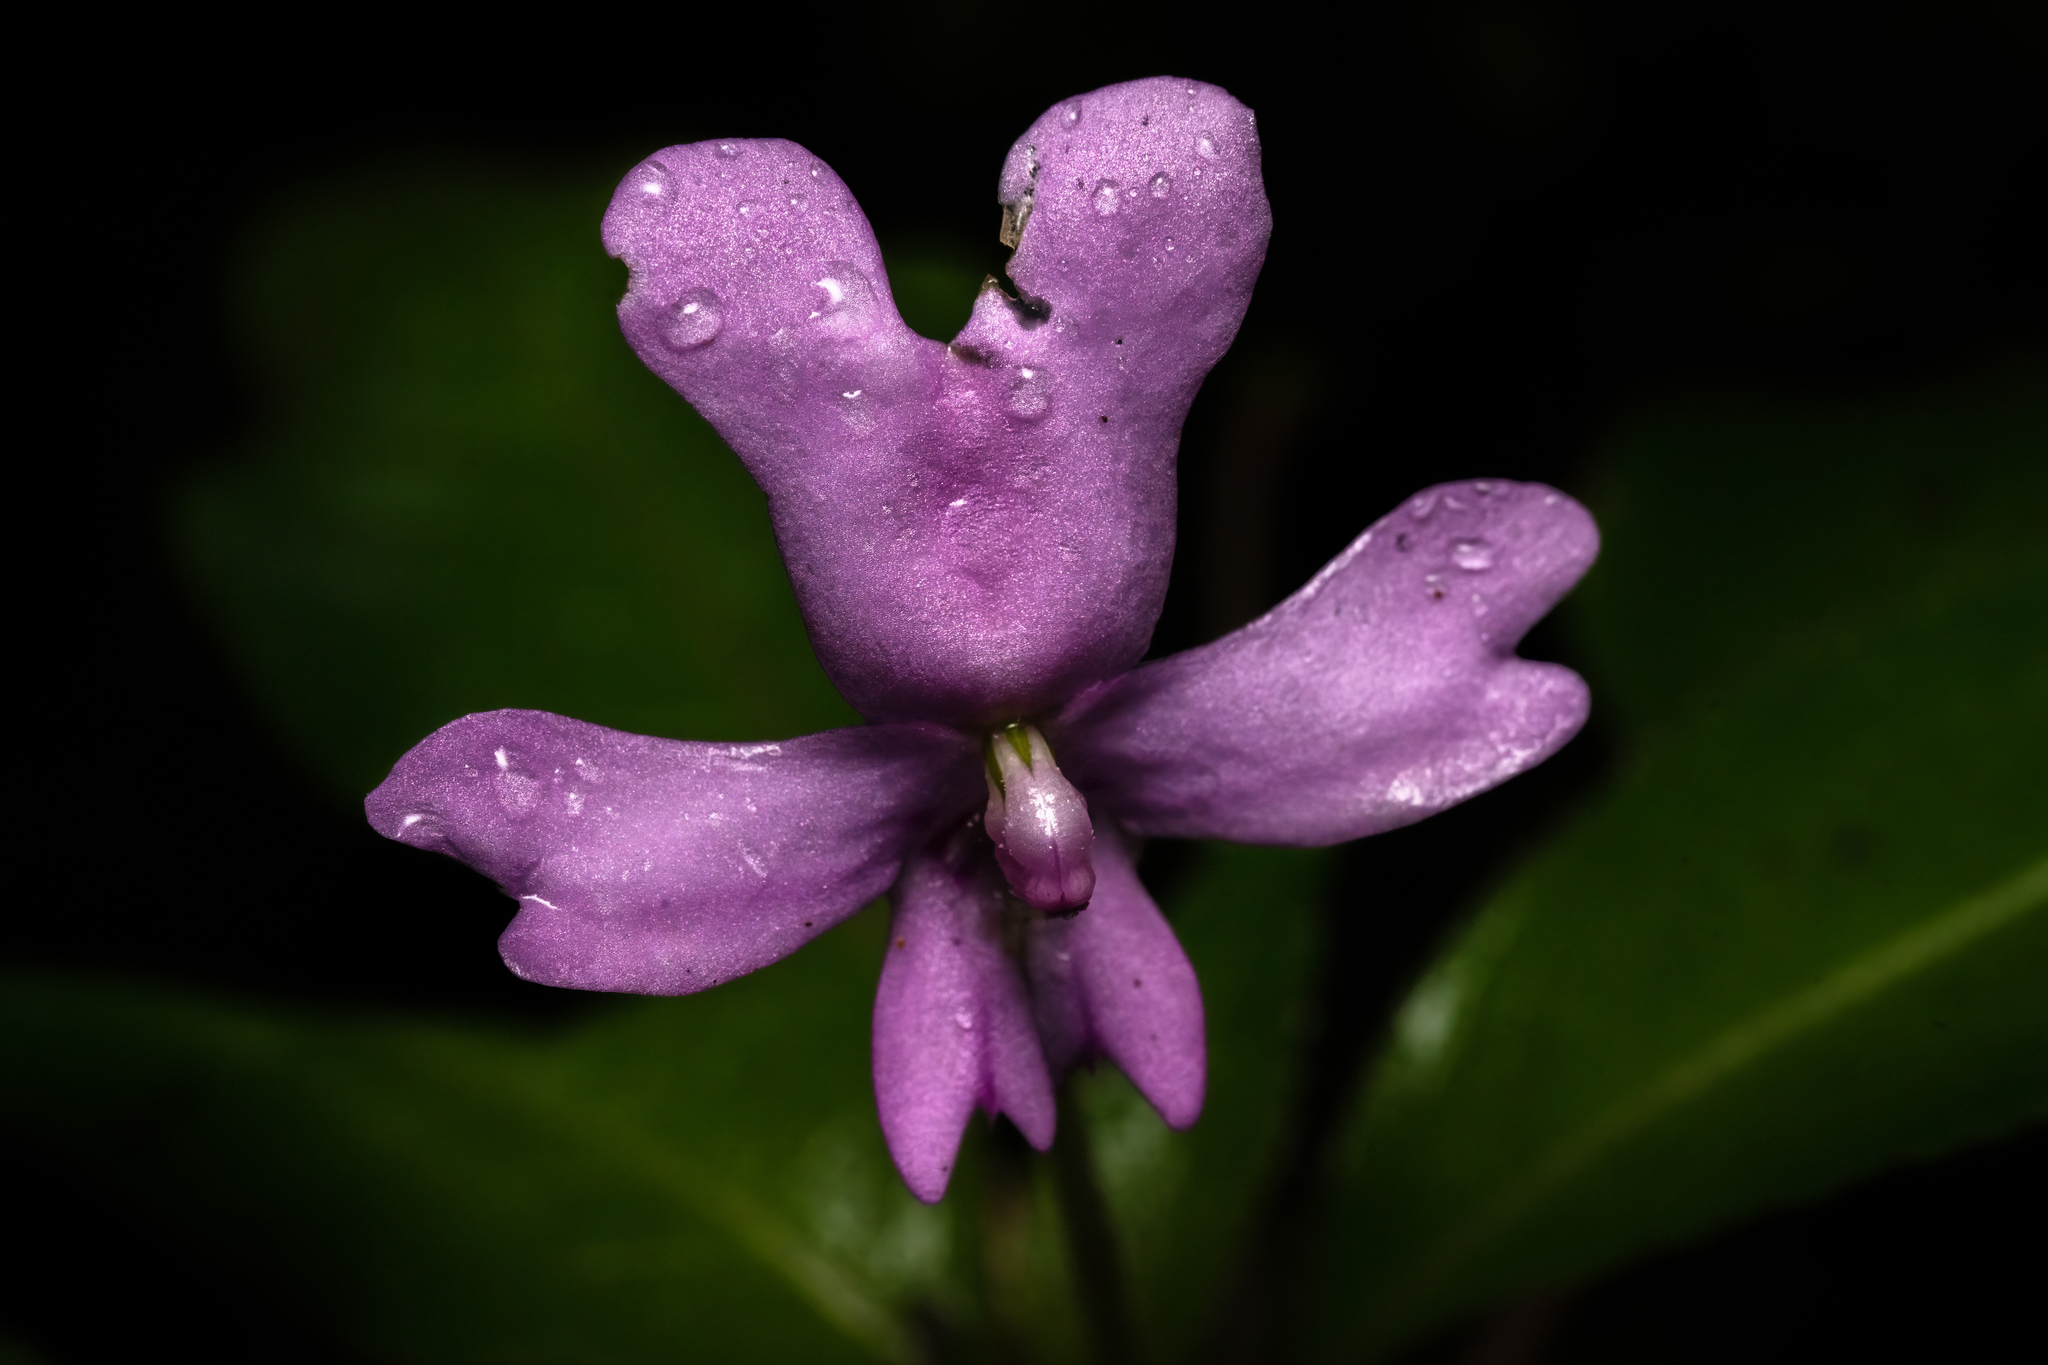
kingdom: Plantae
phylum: Tracheophyta
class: Magnoliopsida
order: Ericales
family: Balsaminaceae
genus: Impatiens
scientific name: Impatiens kinabaluensis
